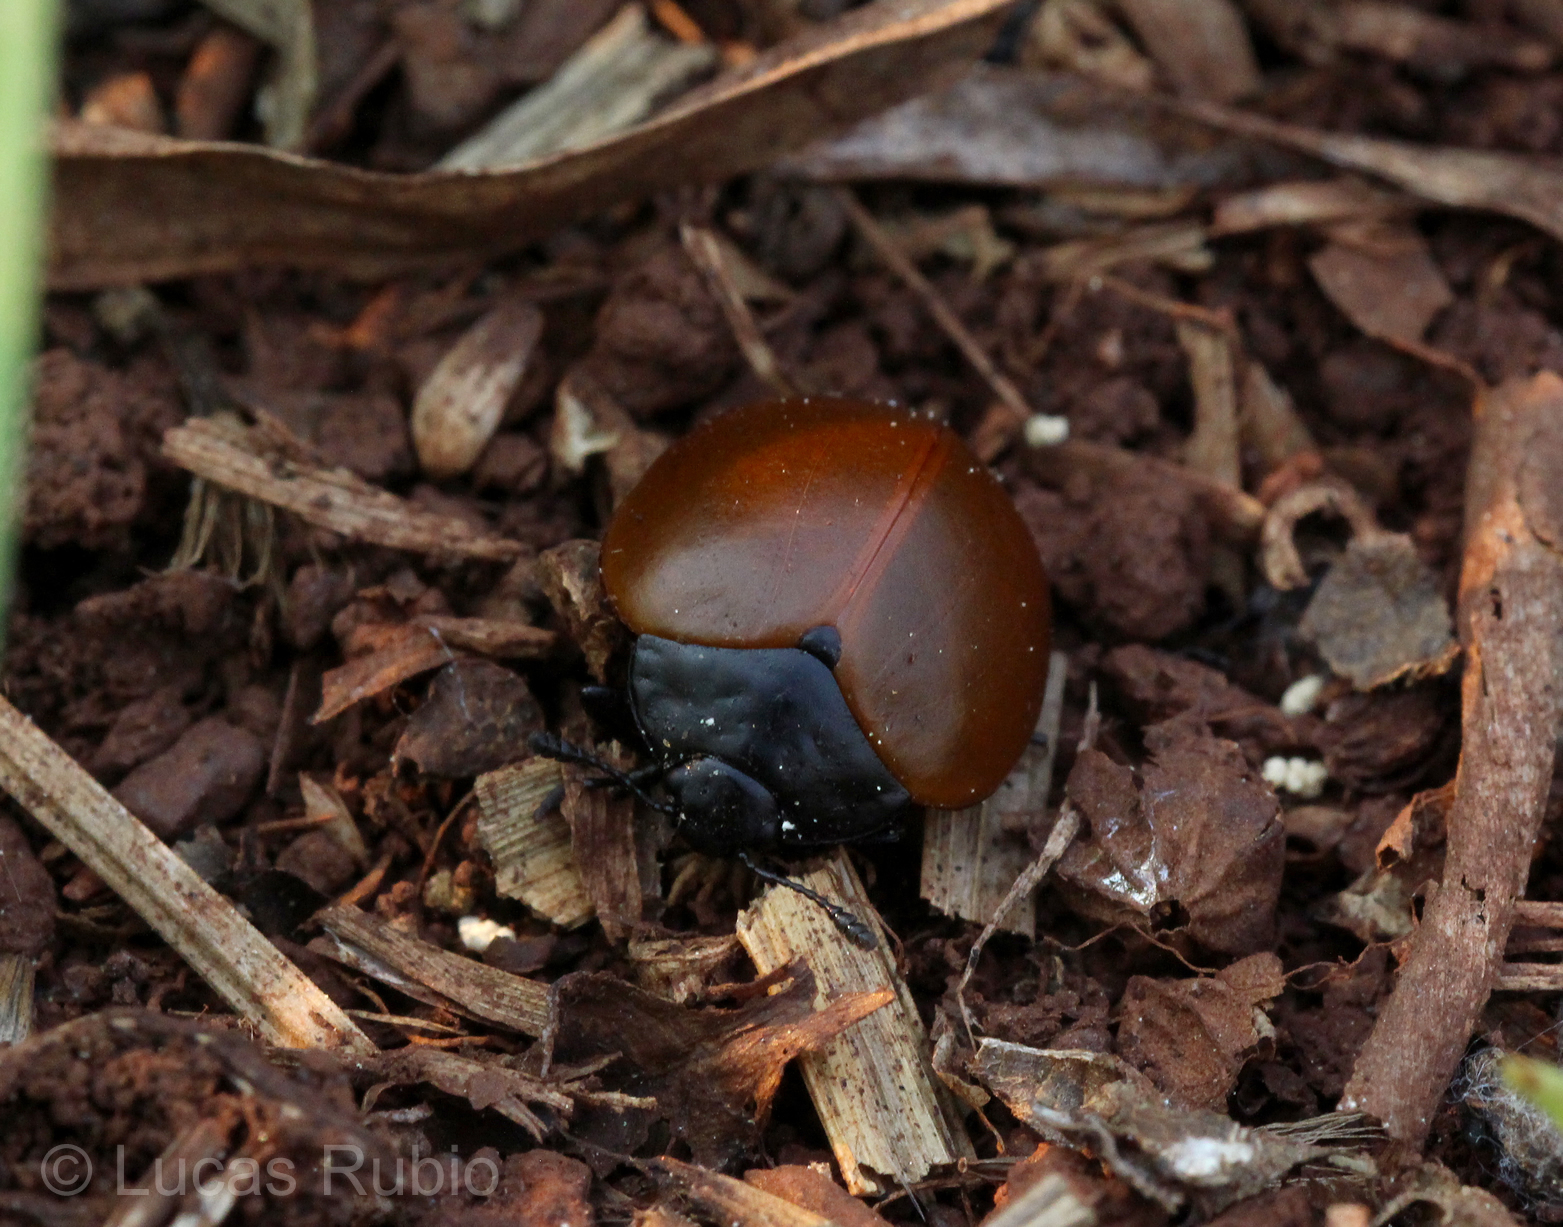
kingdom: Animalia
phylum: Arthropoda
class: Insecta
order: Coleoptera
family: Erotylidae
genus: Aegithus
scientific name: Aegithus clavicornis
